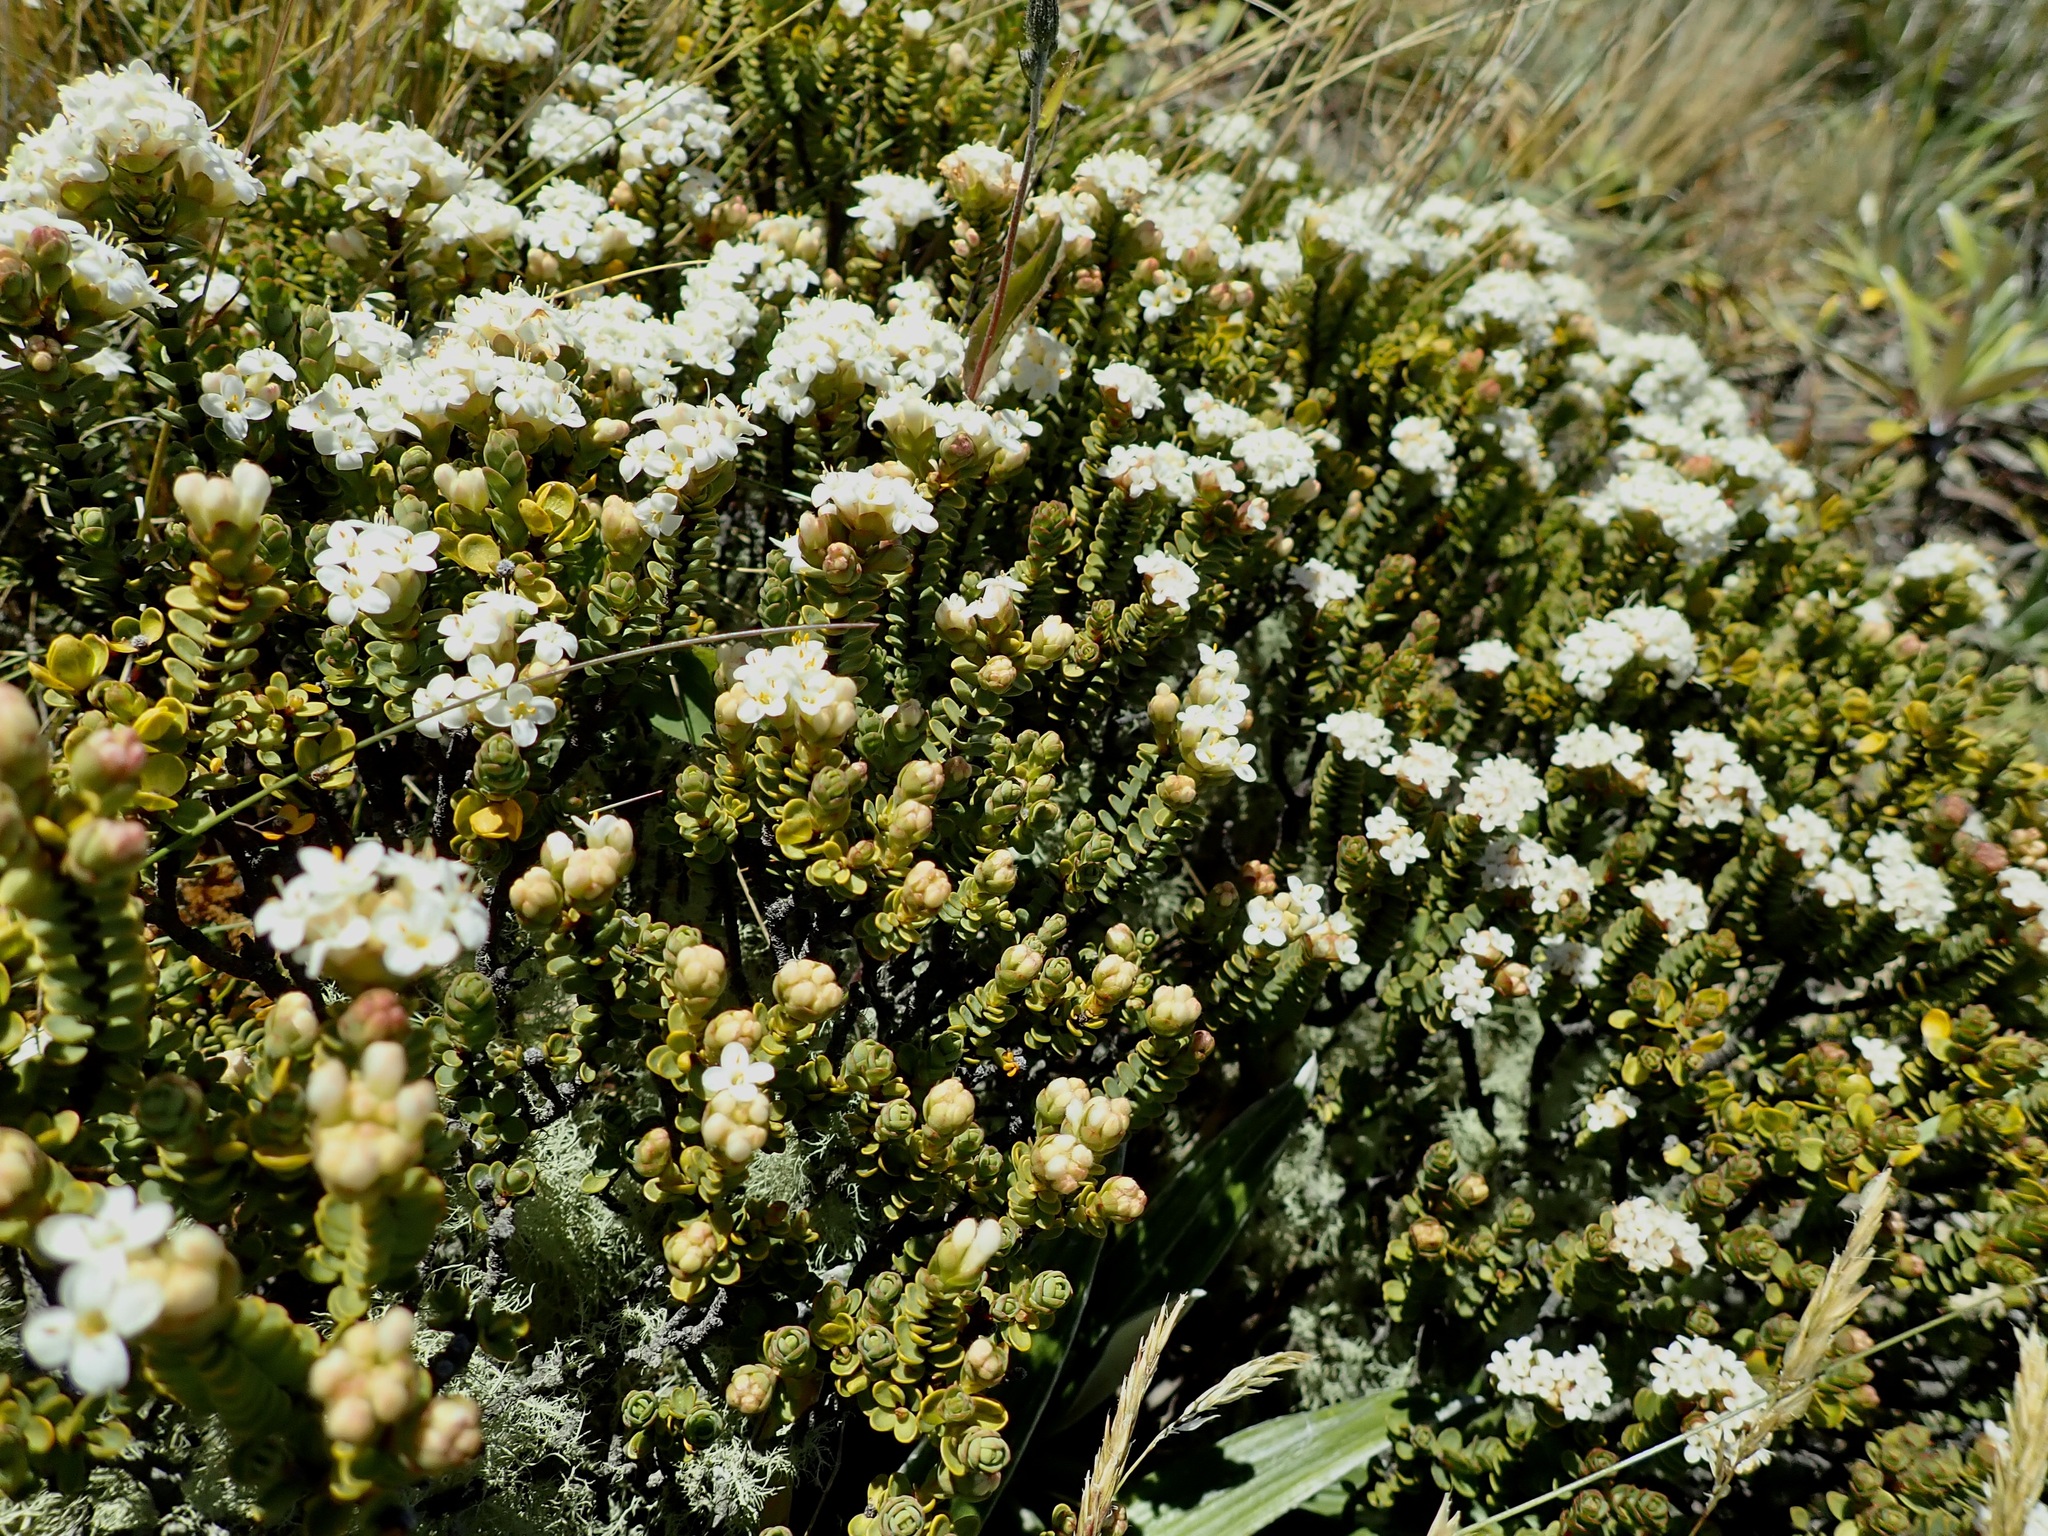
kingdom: Plantae
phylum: Tracheophyta
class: Magnoliopsida
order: Malvales
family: Thymelaeaceae
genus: Pimelea
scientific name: Pimelea traversii
